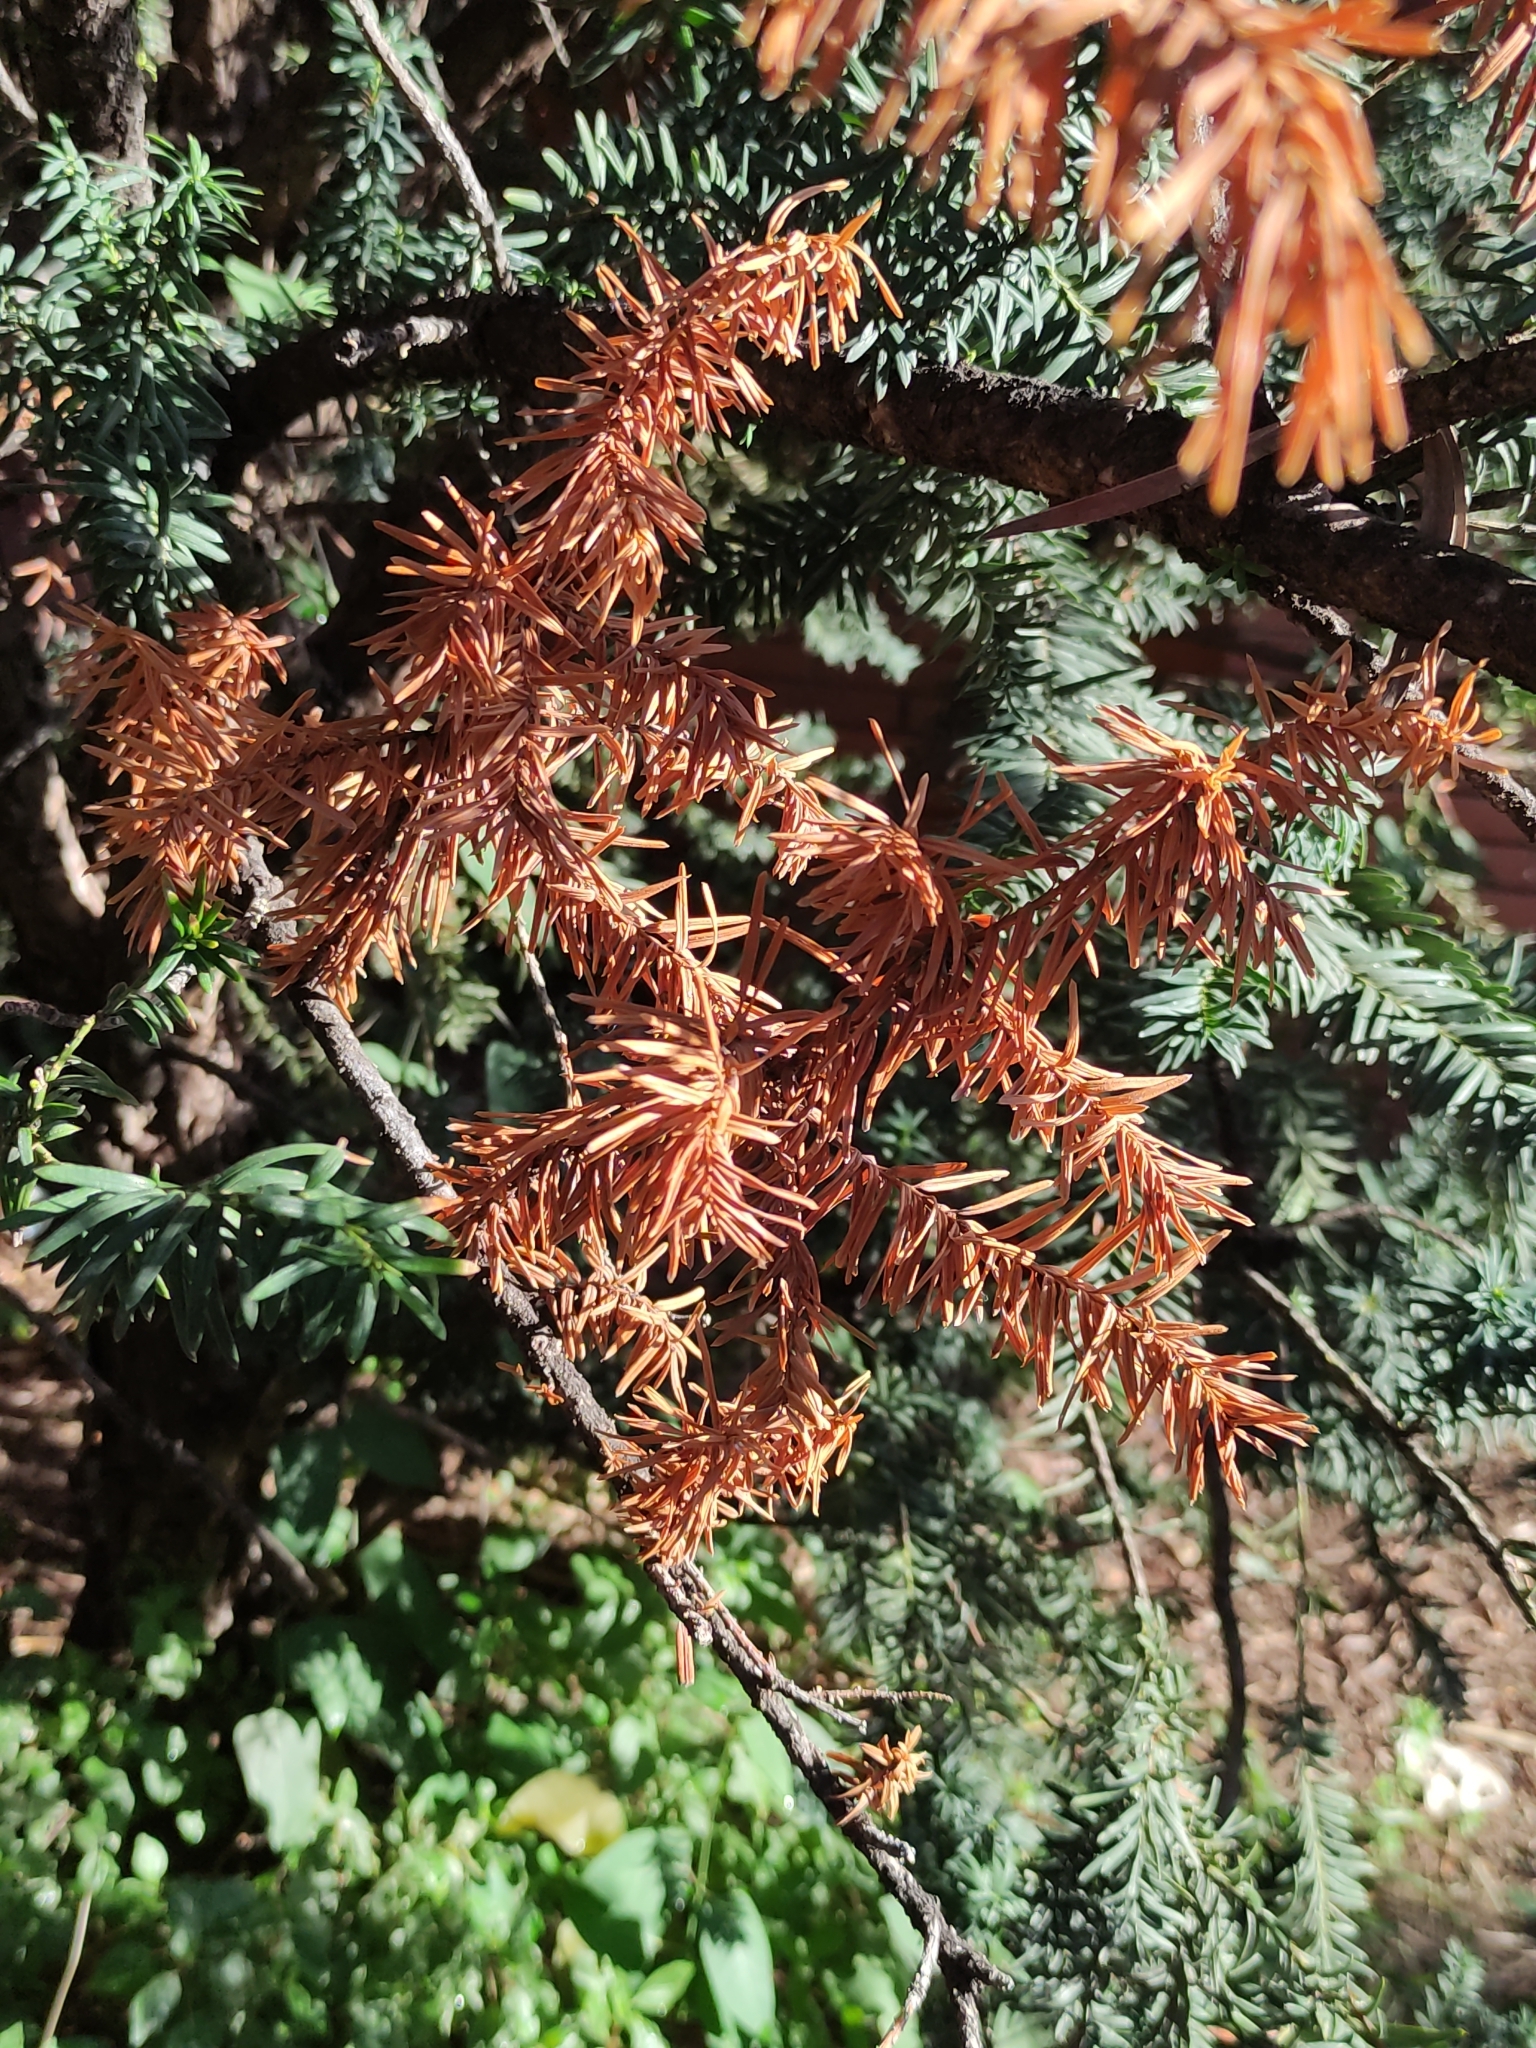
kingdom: Plantae
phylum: Tracheophyta
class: Pinopsida
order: Pinales
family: Taxaceae
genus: Taxus
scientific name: Taxus baccata
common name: Yew
